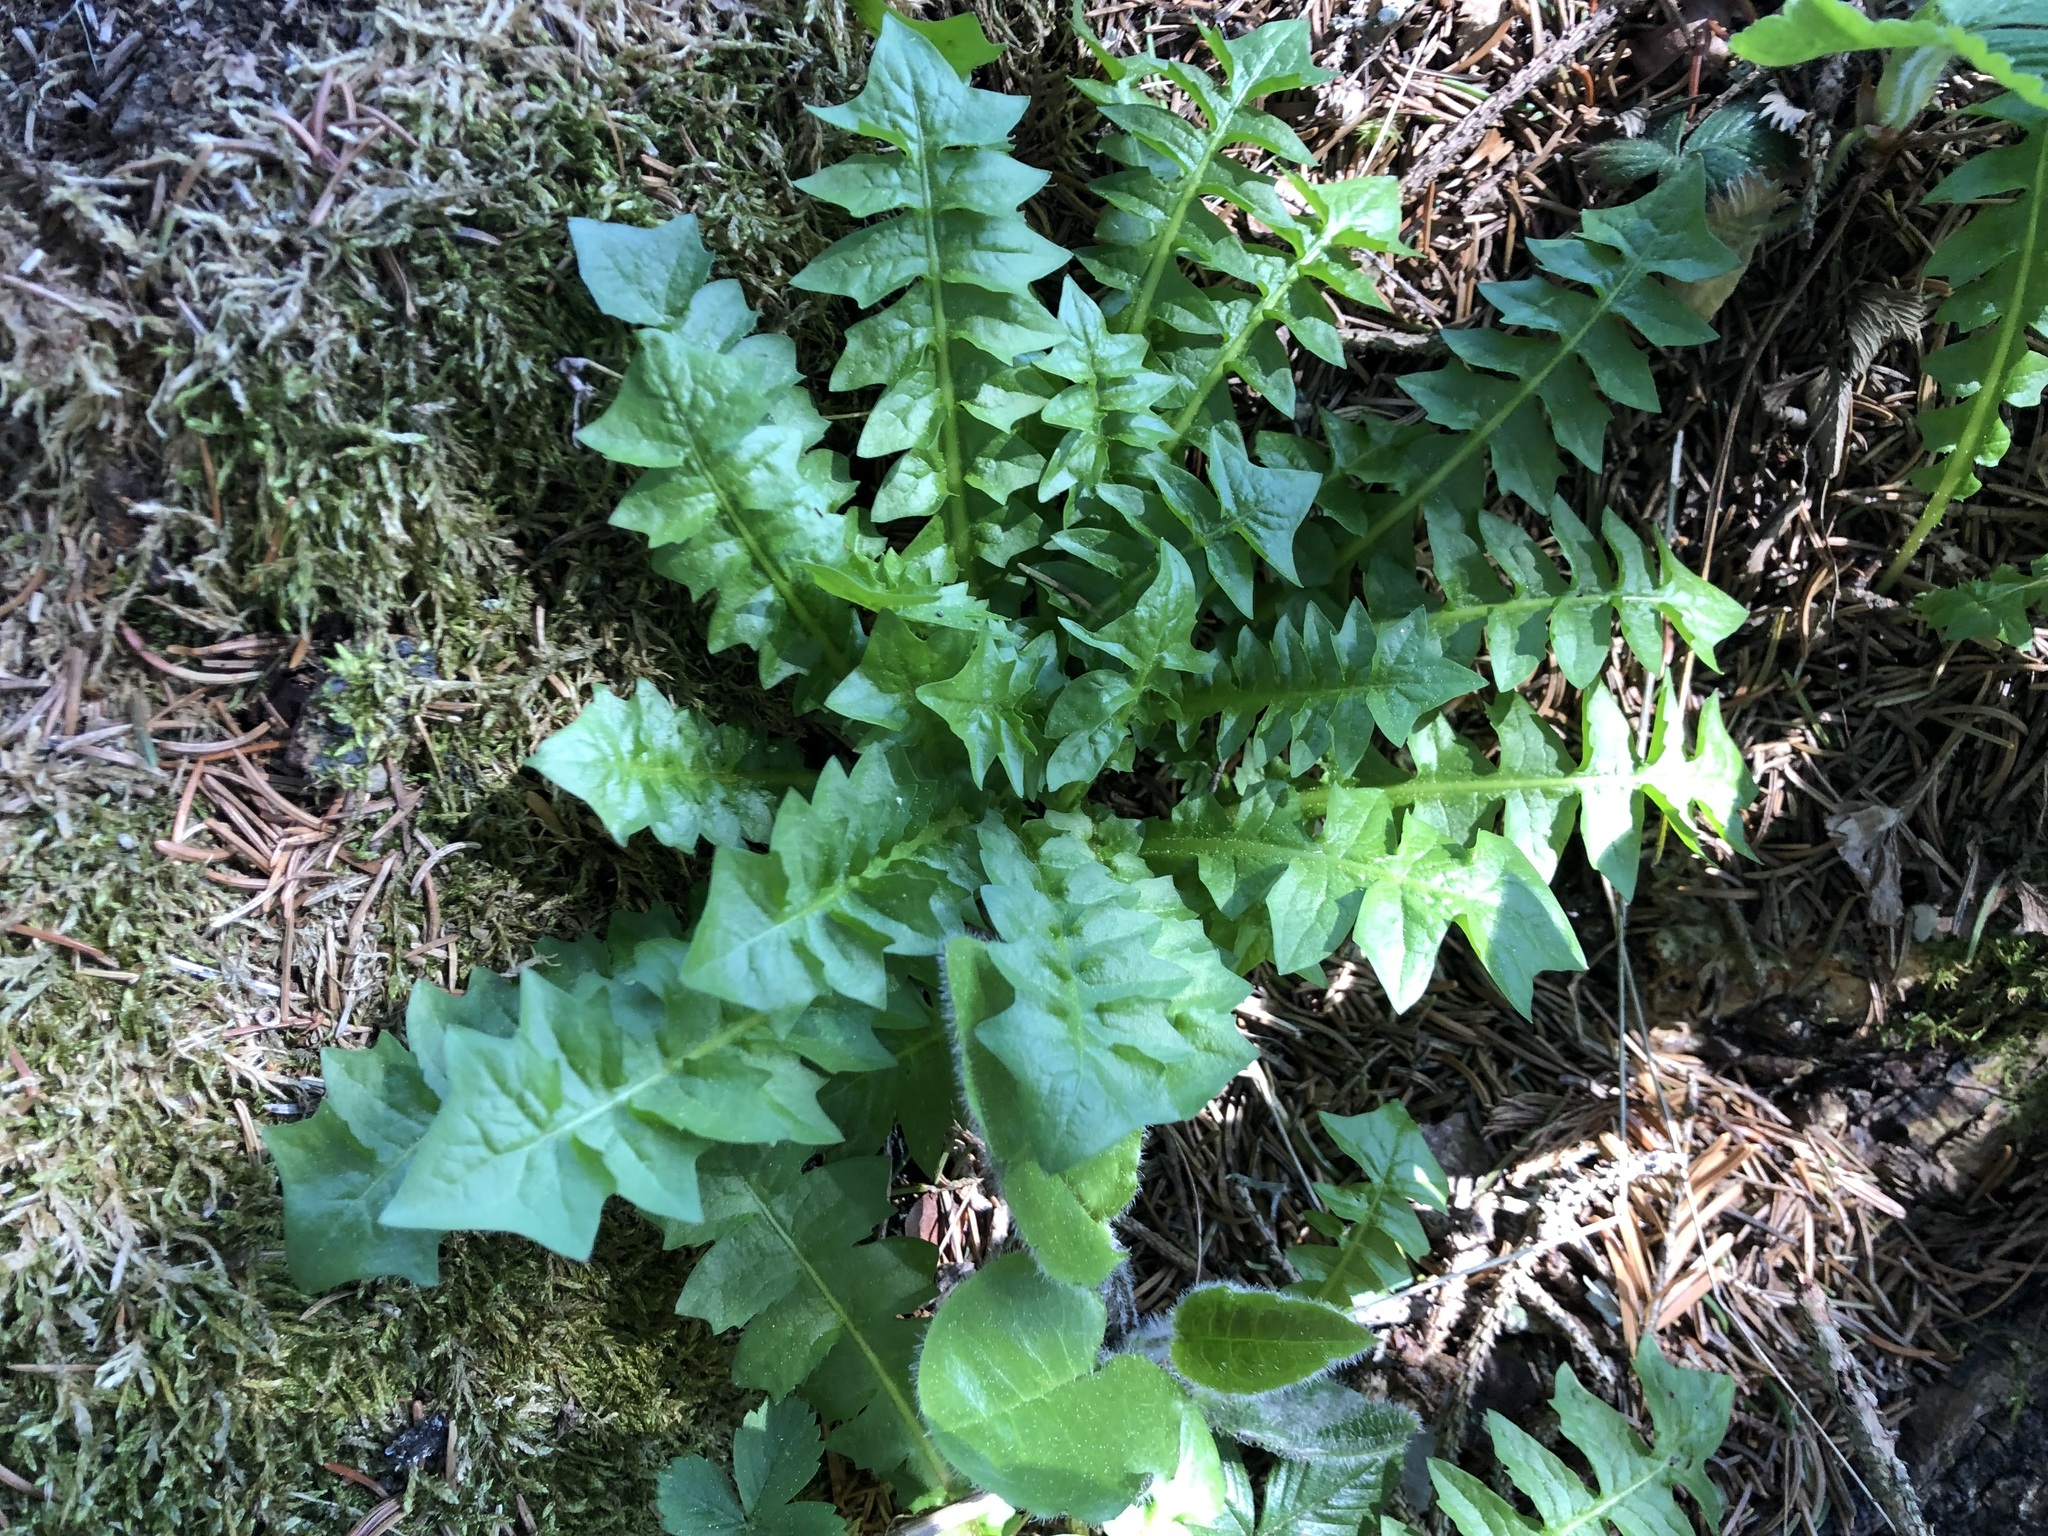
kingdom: Plantae
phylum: Tracheophyta
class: Magnoliopsida
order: Asterales
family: Asteraceae
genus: Aposeris
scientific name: Aposeris foetida
